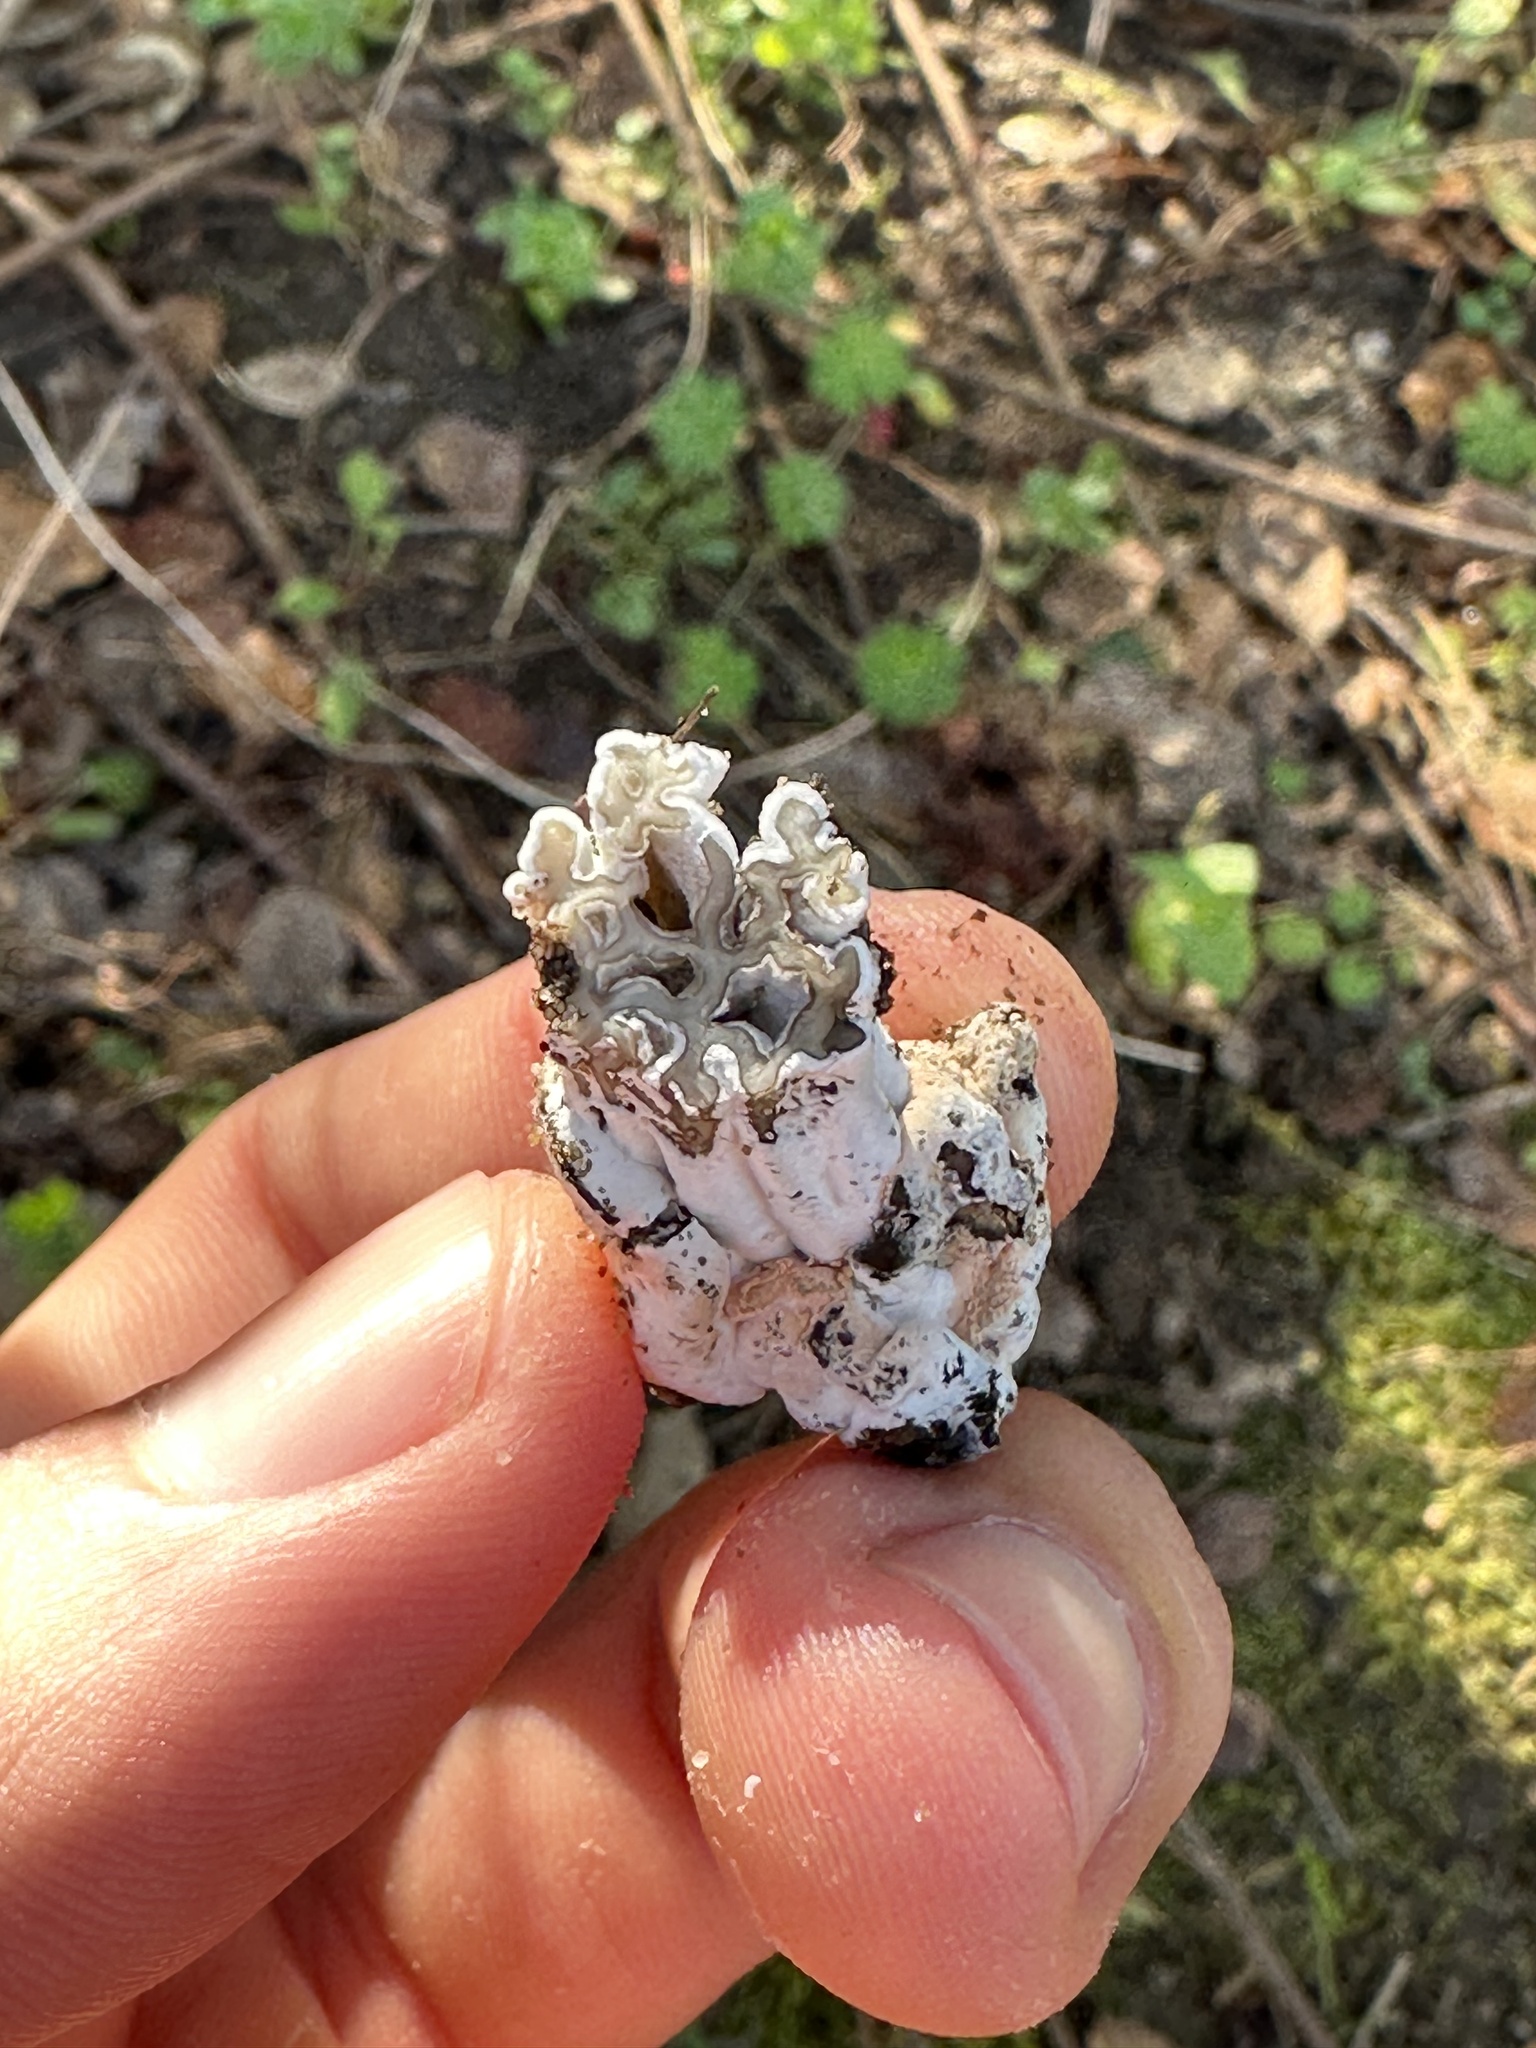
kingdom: Fungi
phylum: Ascomycota
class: Sordariomycetes
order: Hypocreales
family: Hypocreaceae
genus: Hypomyces
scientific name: Hypomyces cervinus
